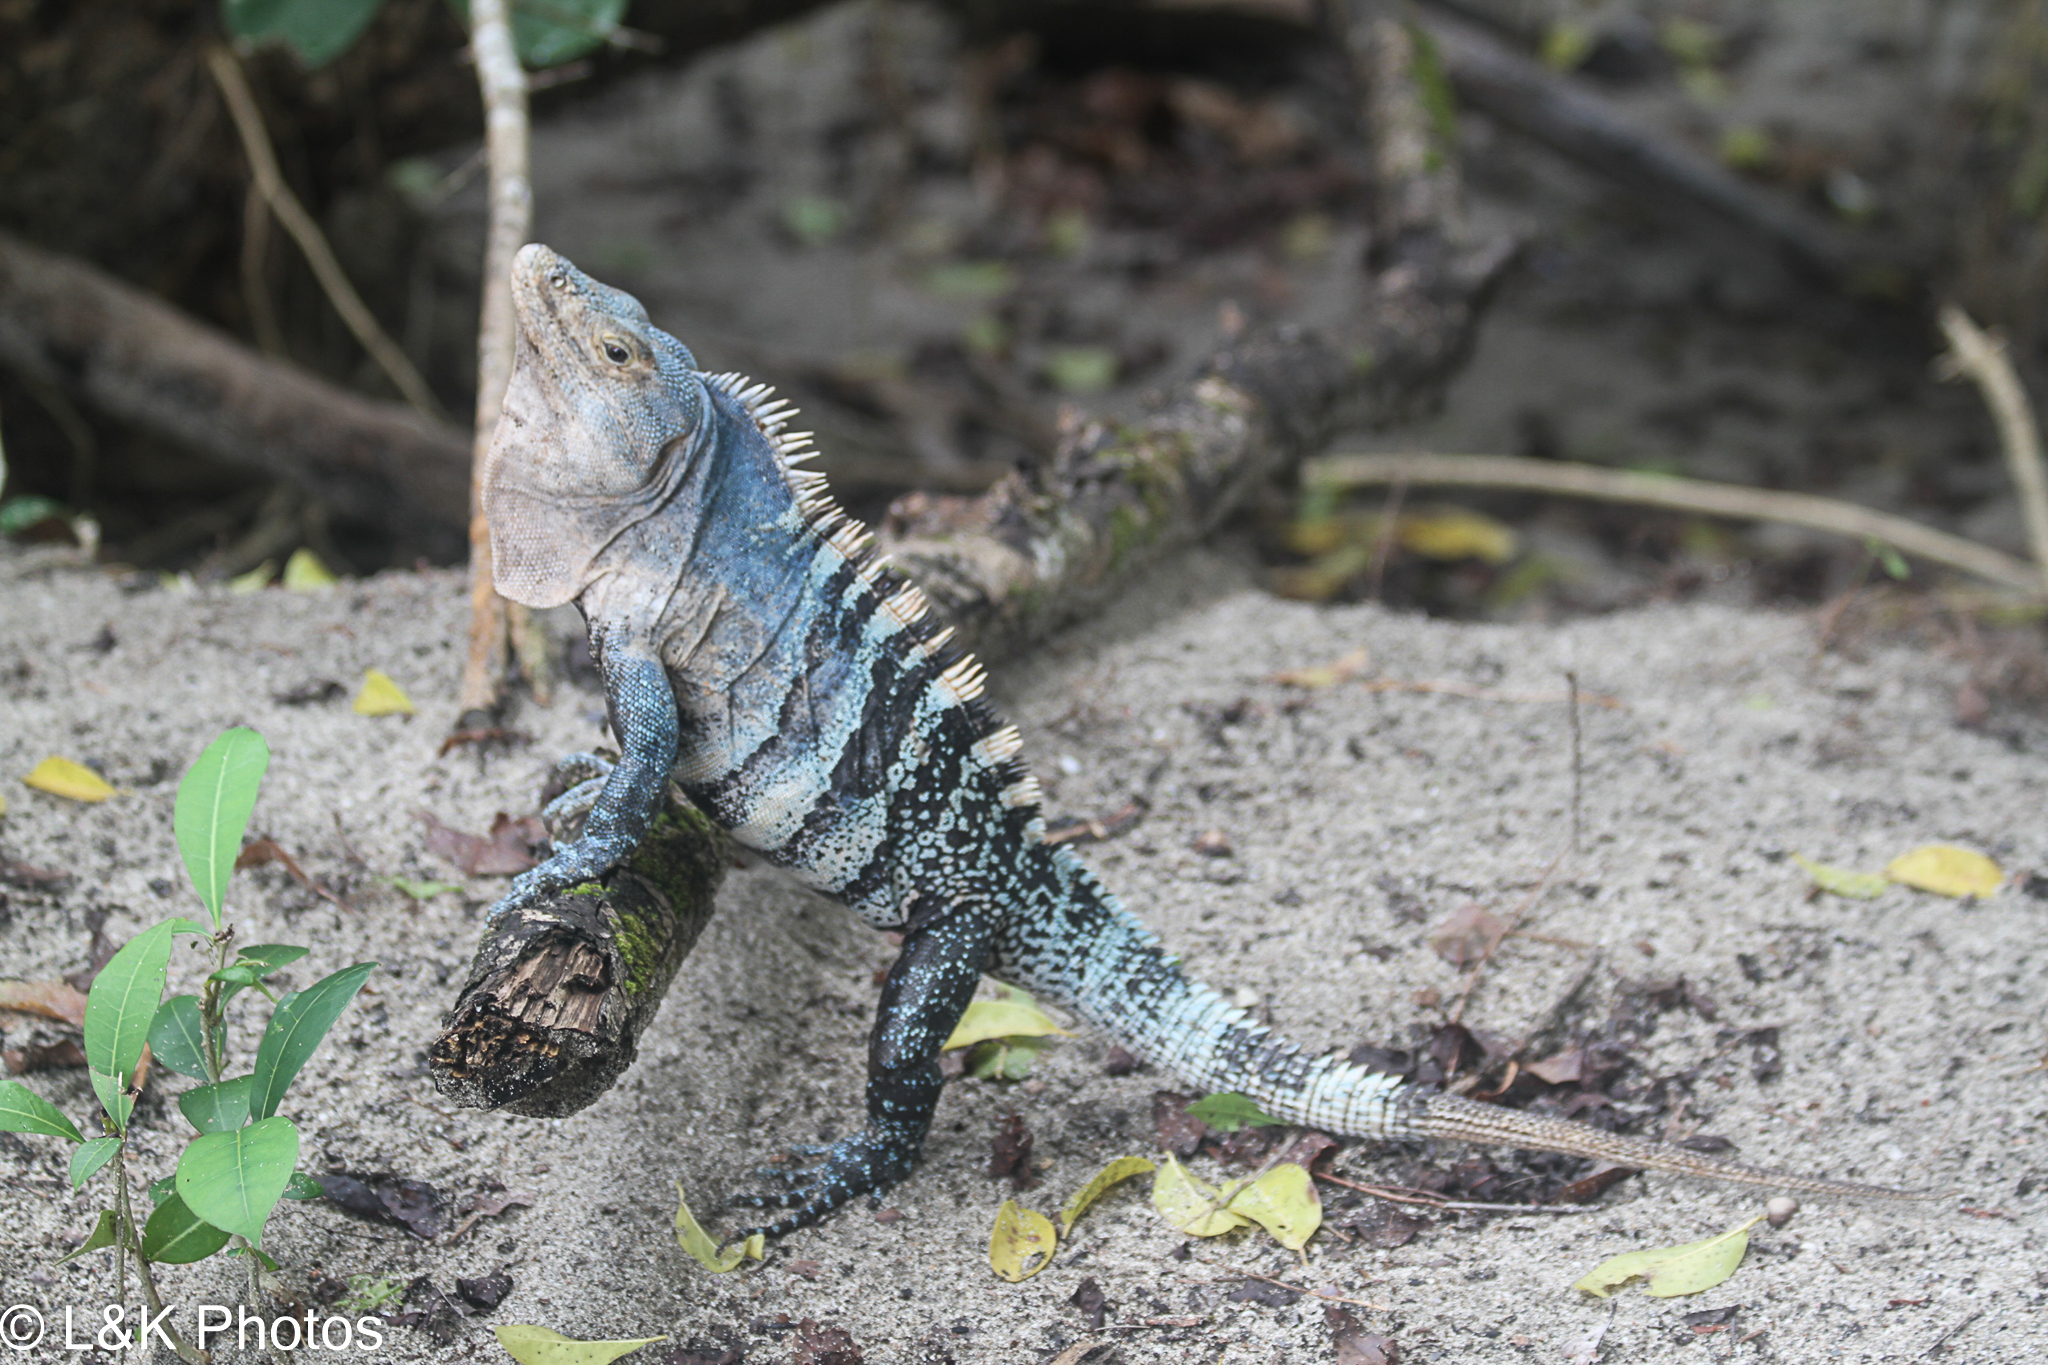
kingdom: Animalia
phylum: Chordata
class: Squamata
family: Iguanidae
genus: Ctenosaura
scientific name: Ctenosaura similis
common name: Black spiny-tailed iguana
